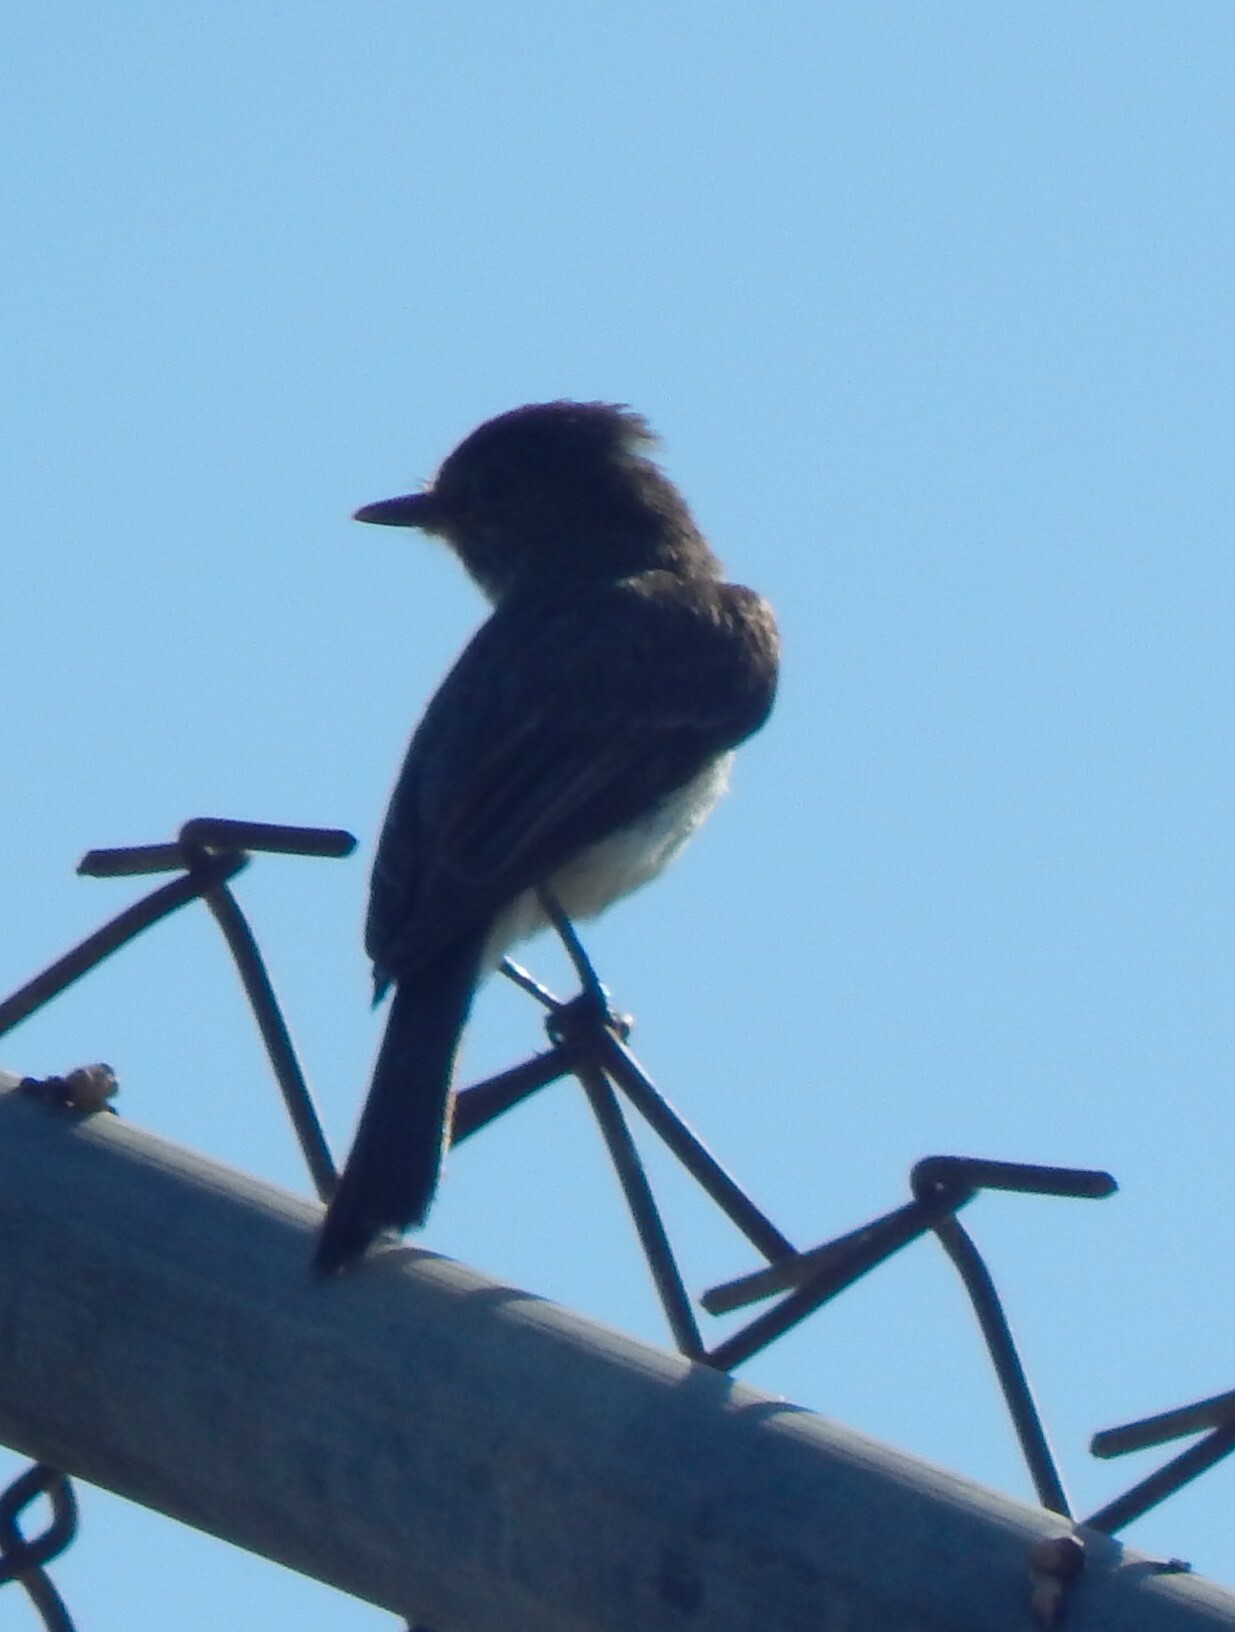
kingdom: Animalia
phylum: Chordata
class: Aves
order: Passeriformes
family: Tyrannidae
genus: Sayornis
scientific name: Sayornis phoebe
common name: Eastern phoebe
